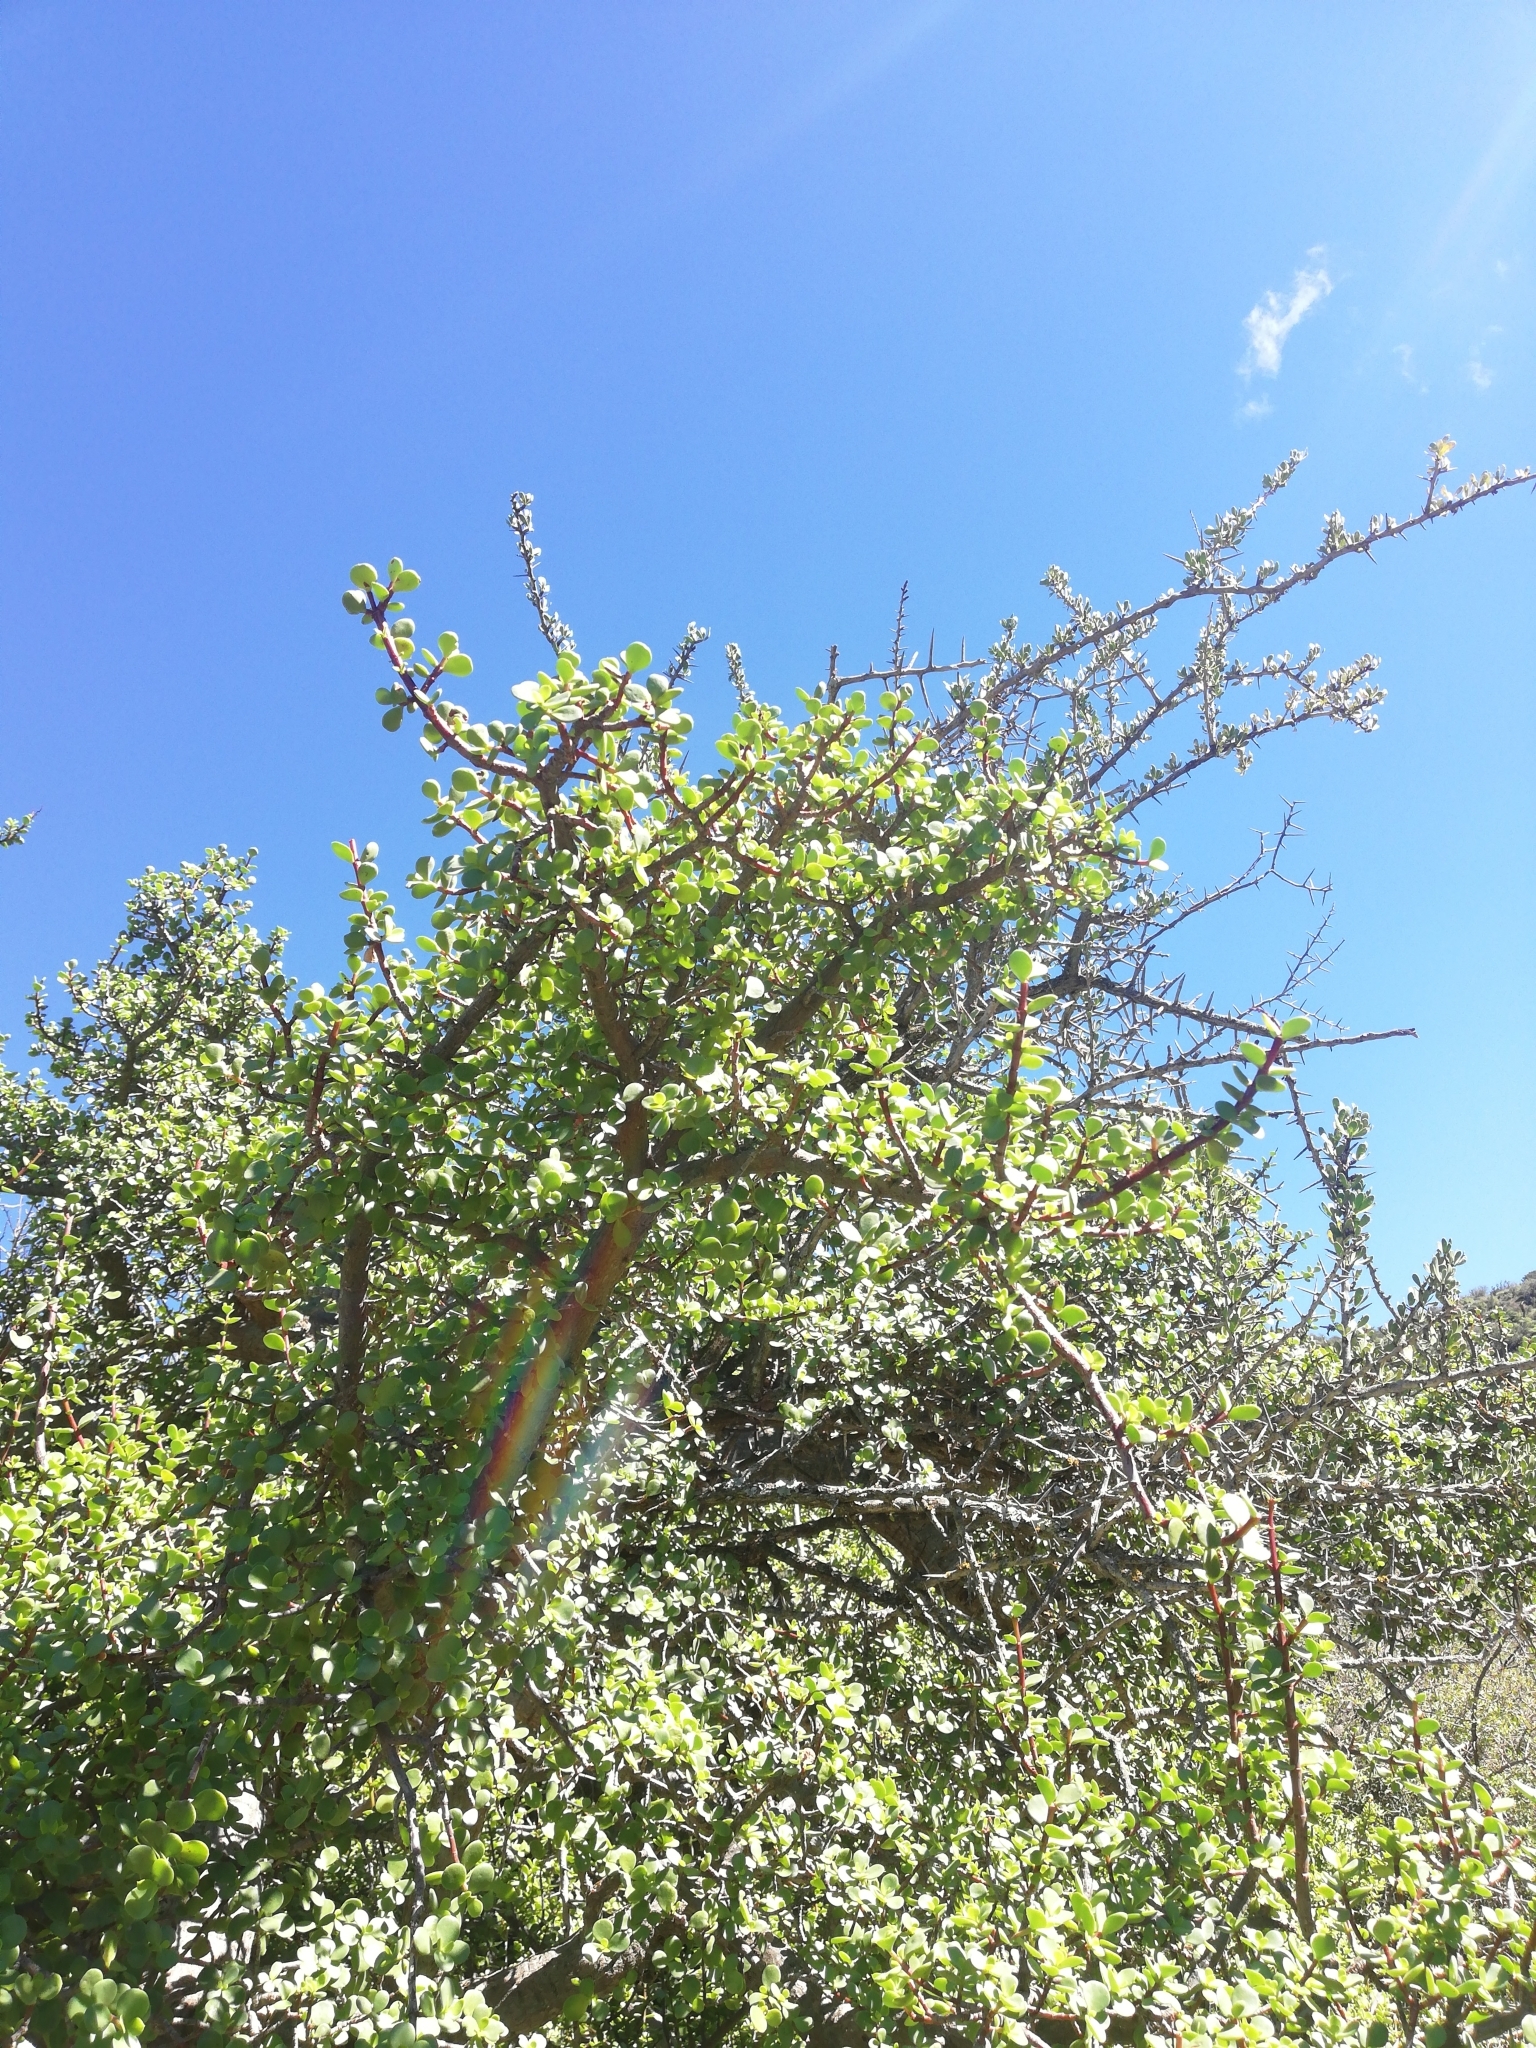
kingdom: Plantae
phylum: Tracheophyta
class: Magnoliopsida
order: Caryophyllales
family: Didiereaceae
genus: Portulacaria
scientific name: Portulacaria afra
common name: Elephant-bush
